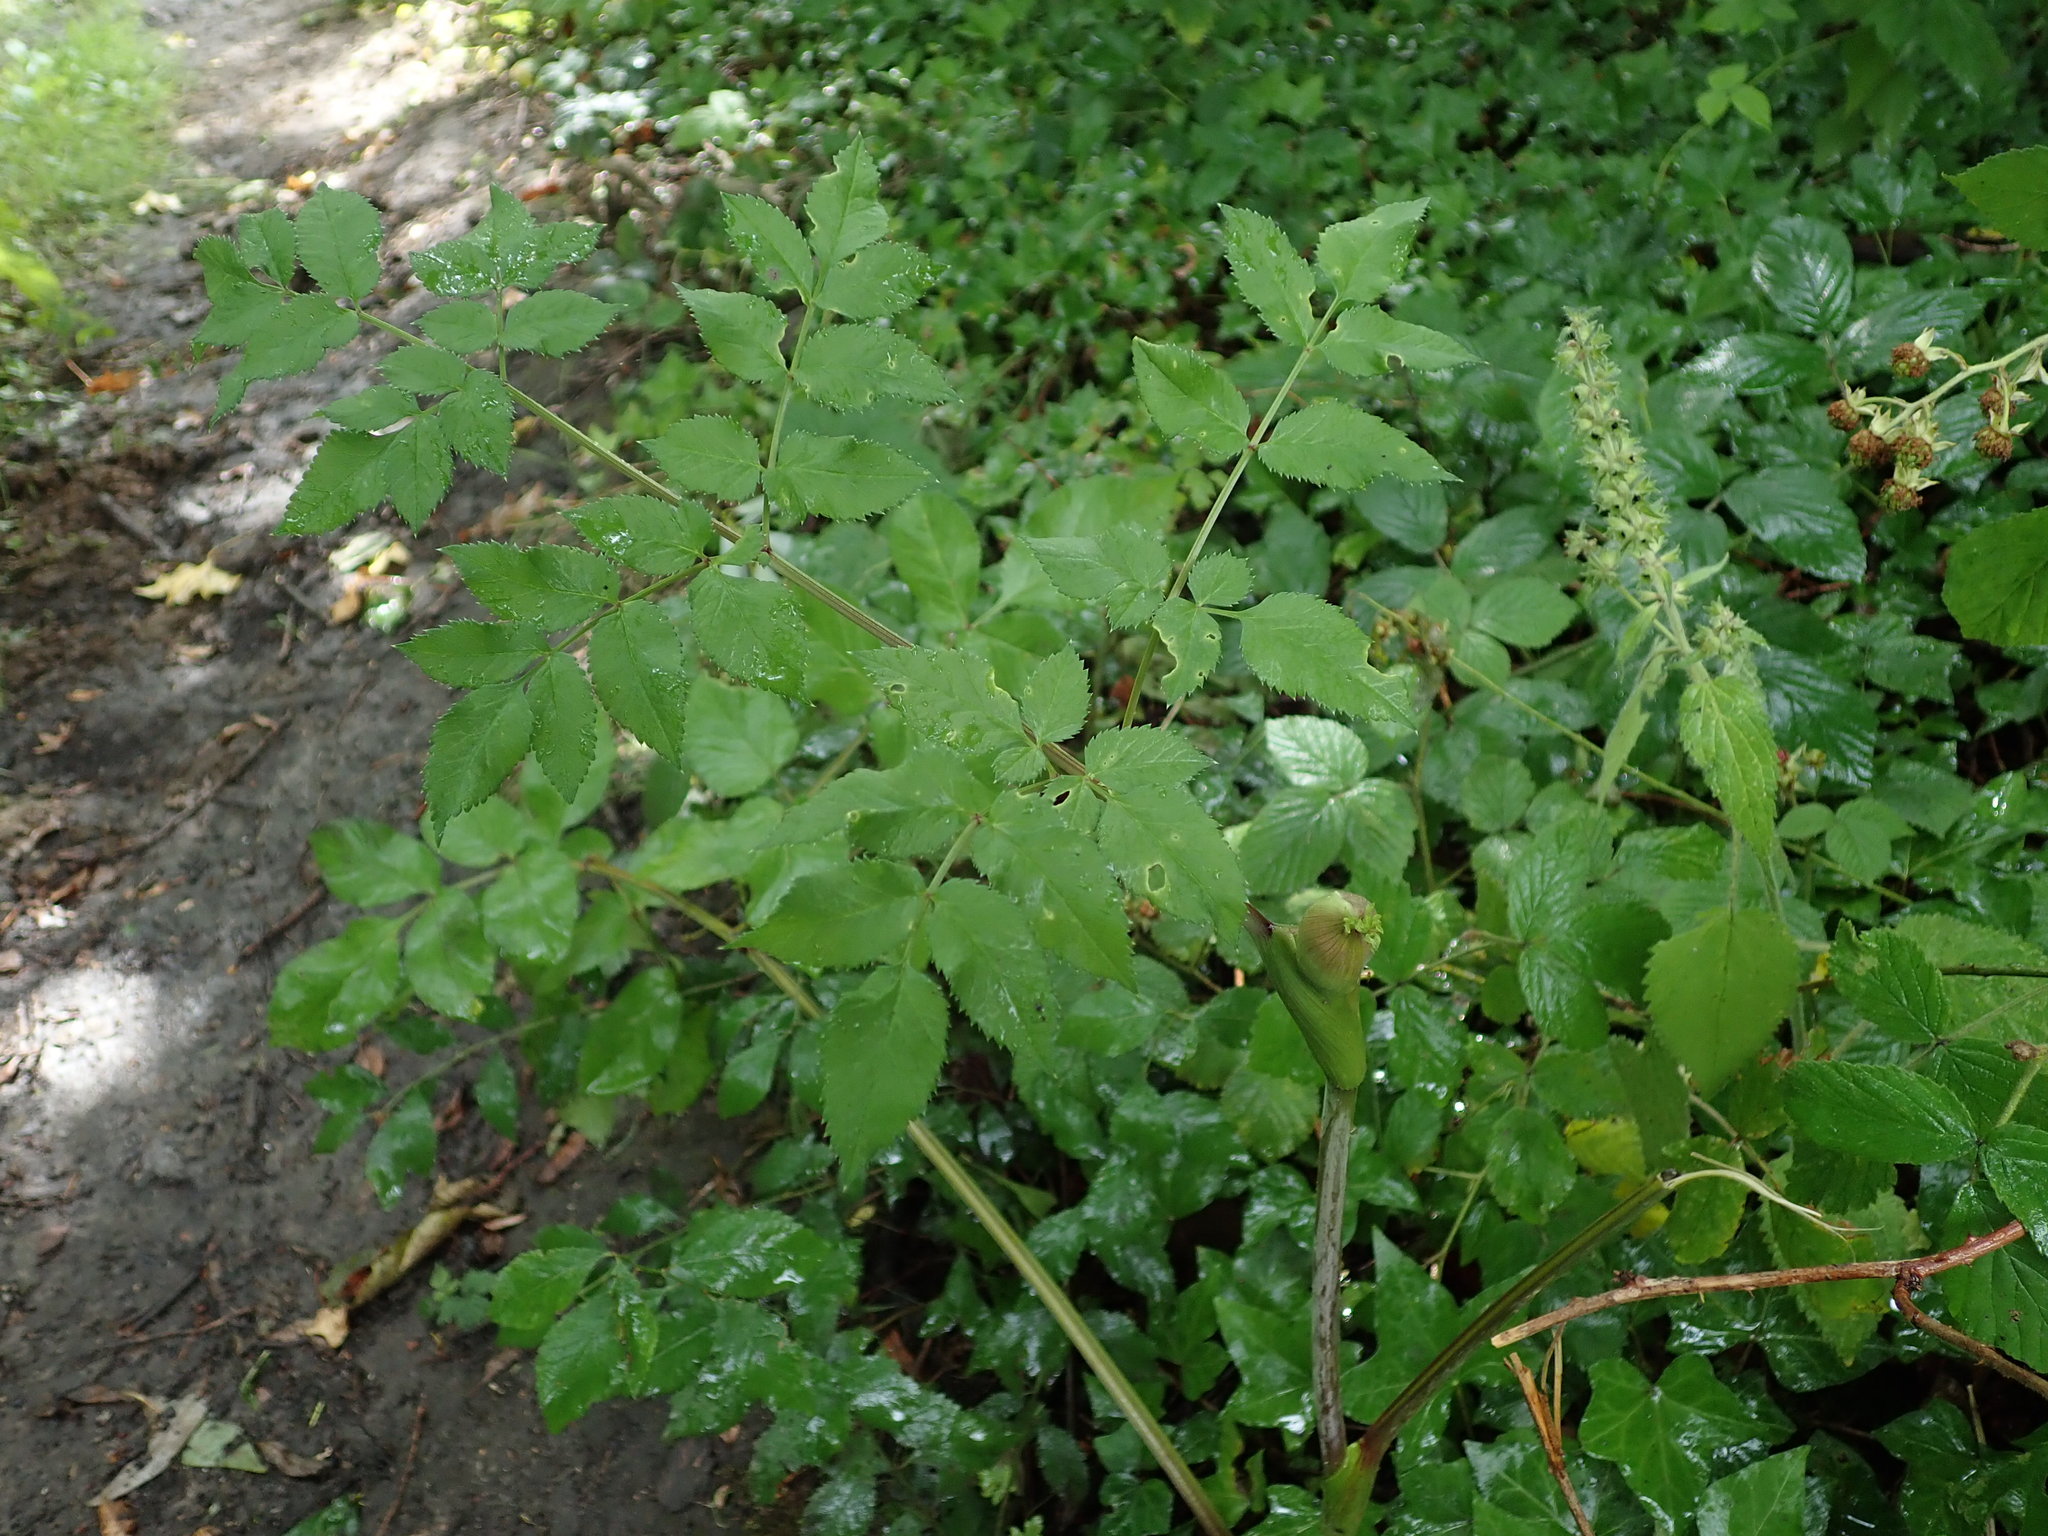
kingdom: Plantae
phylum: Tracheophyta
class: Magnoliopsida
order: Apiales
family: Apiaceae
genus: Angelica
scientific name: Angelica sylvestris
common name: Wild angelica
